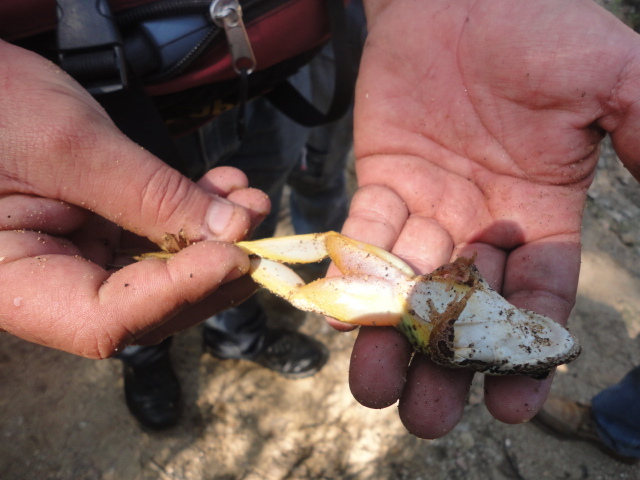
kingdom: Animalia
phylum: Chordata
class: Amphibia
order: Anura
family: Ranidae
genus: Lithobates
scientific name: Lithobates spectabilis
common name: Showy leopard frog
